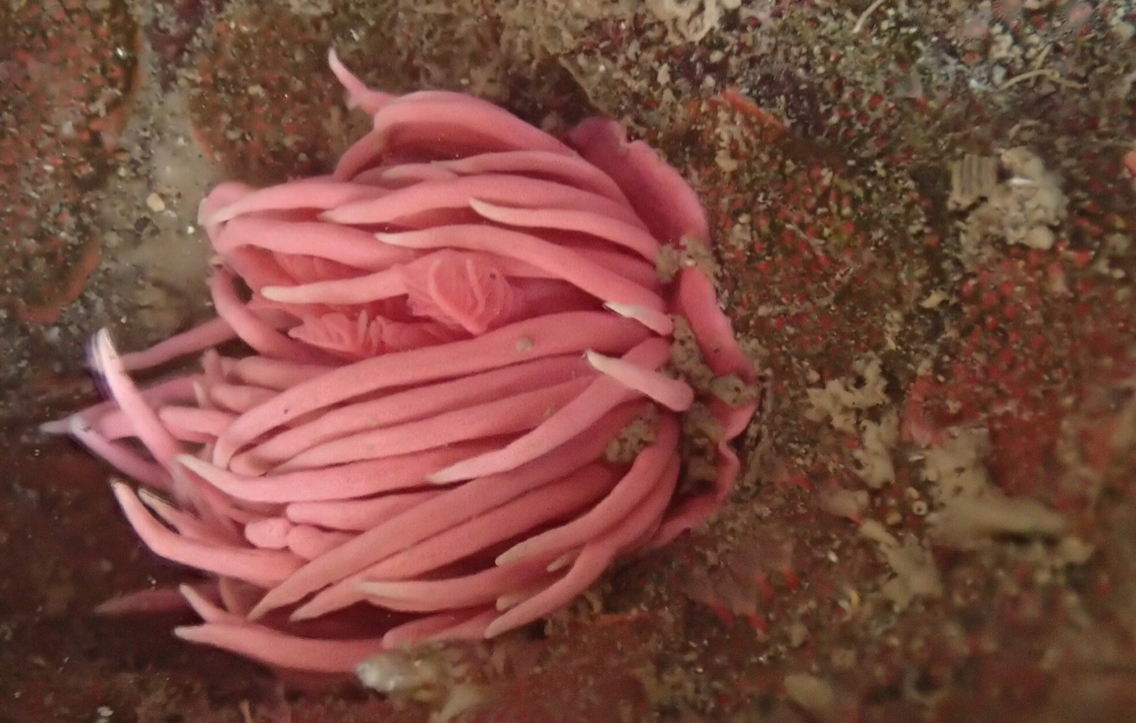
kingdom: Animalia
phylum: Mollusca
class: Gastropoda
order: Nudibranchia
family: Goniodorididae
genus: Okenia
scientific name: Okenia
